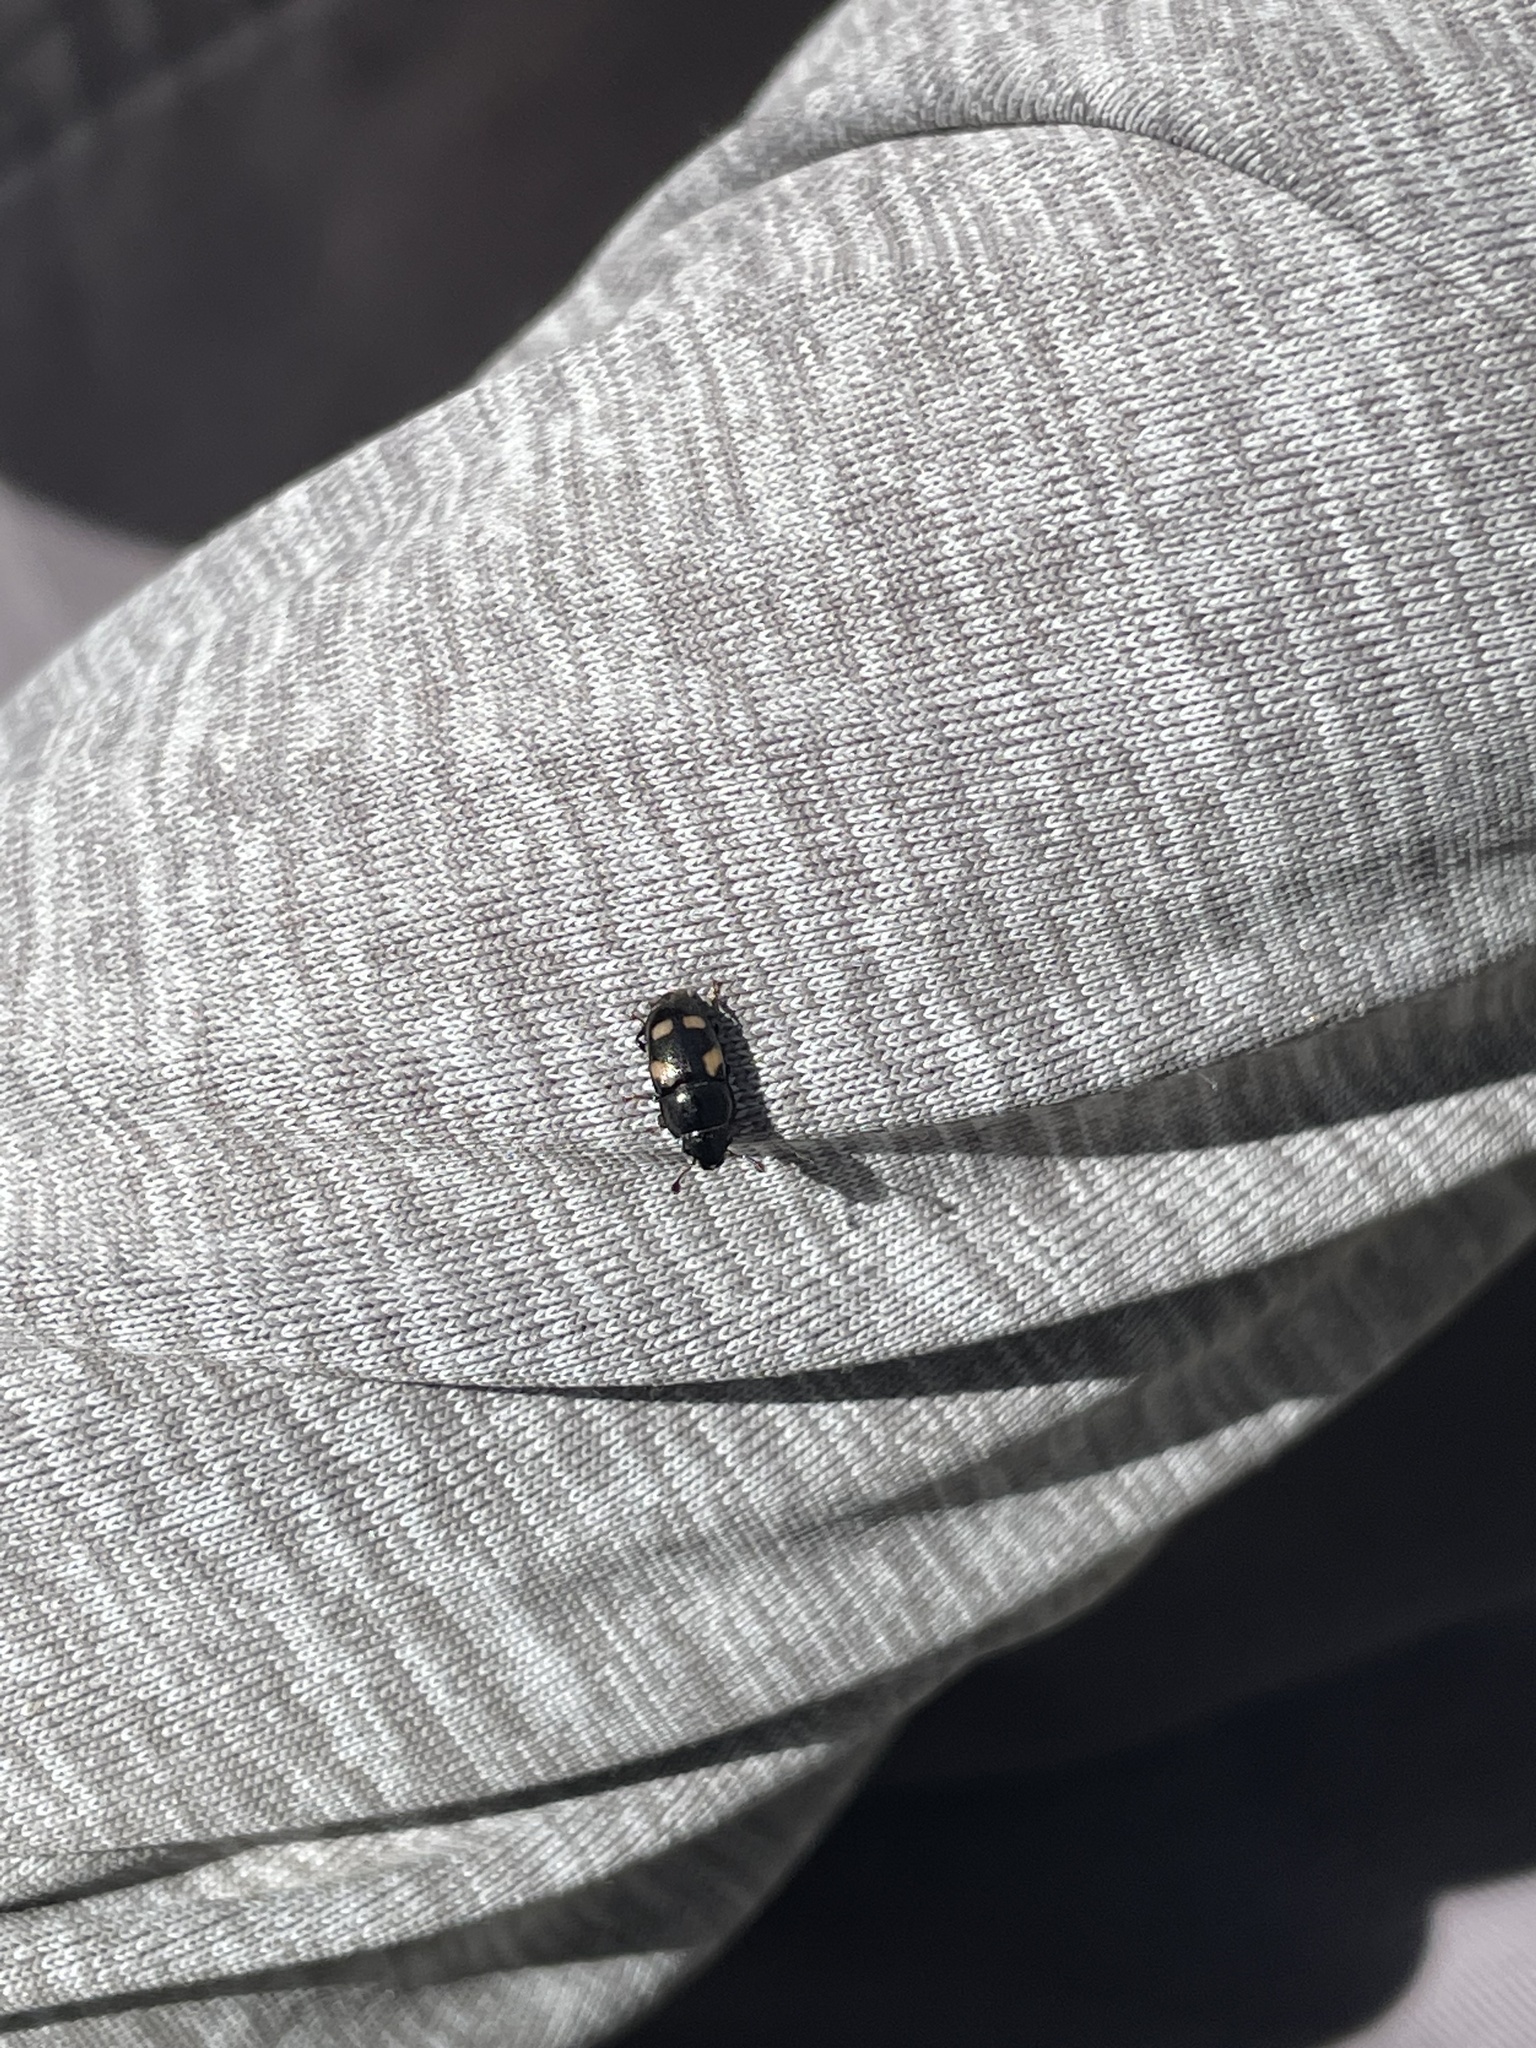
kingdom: Animalia
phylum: Arthropoda
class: Insecta
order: Coleoptera
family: Nitidulidae
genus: Glischrochilus
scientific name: Glischrochilus quadrisignatus
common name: Picnic beetle
